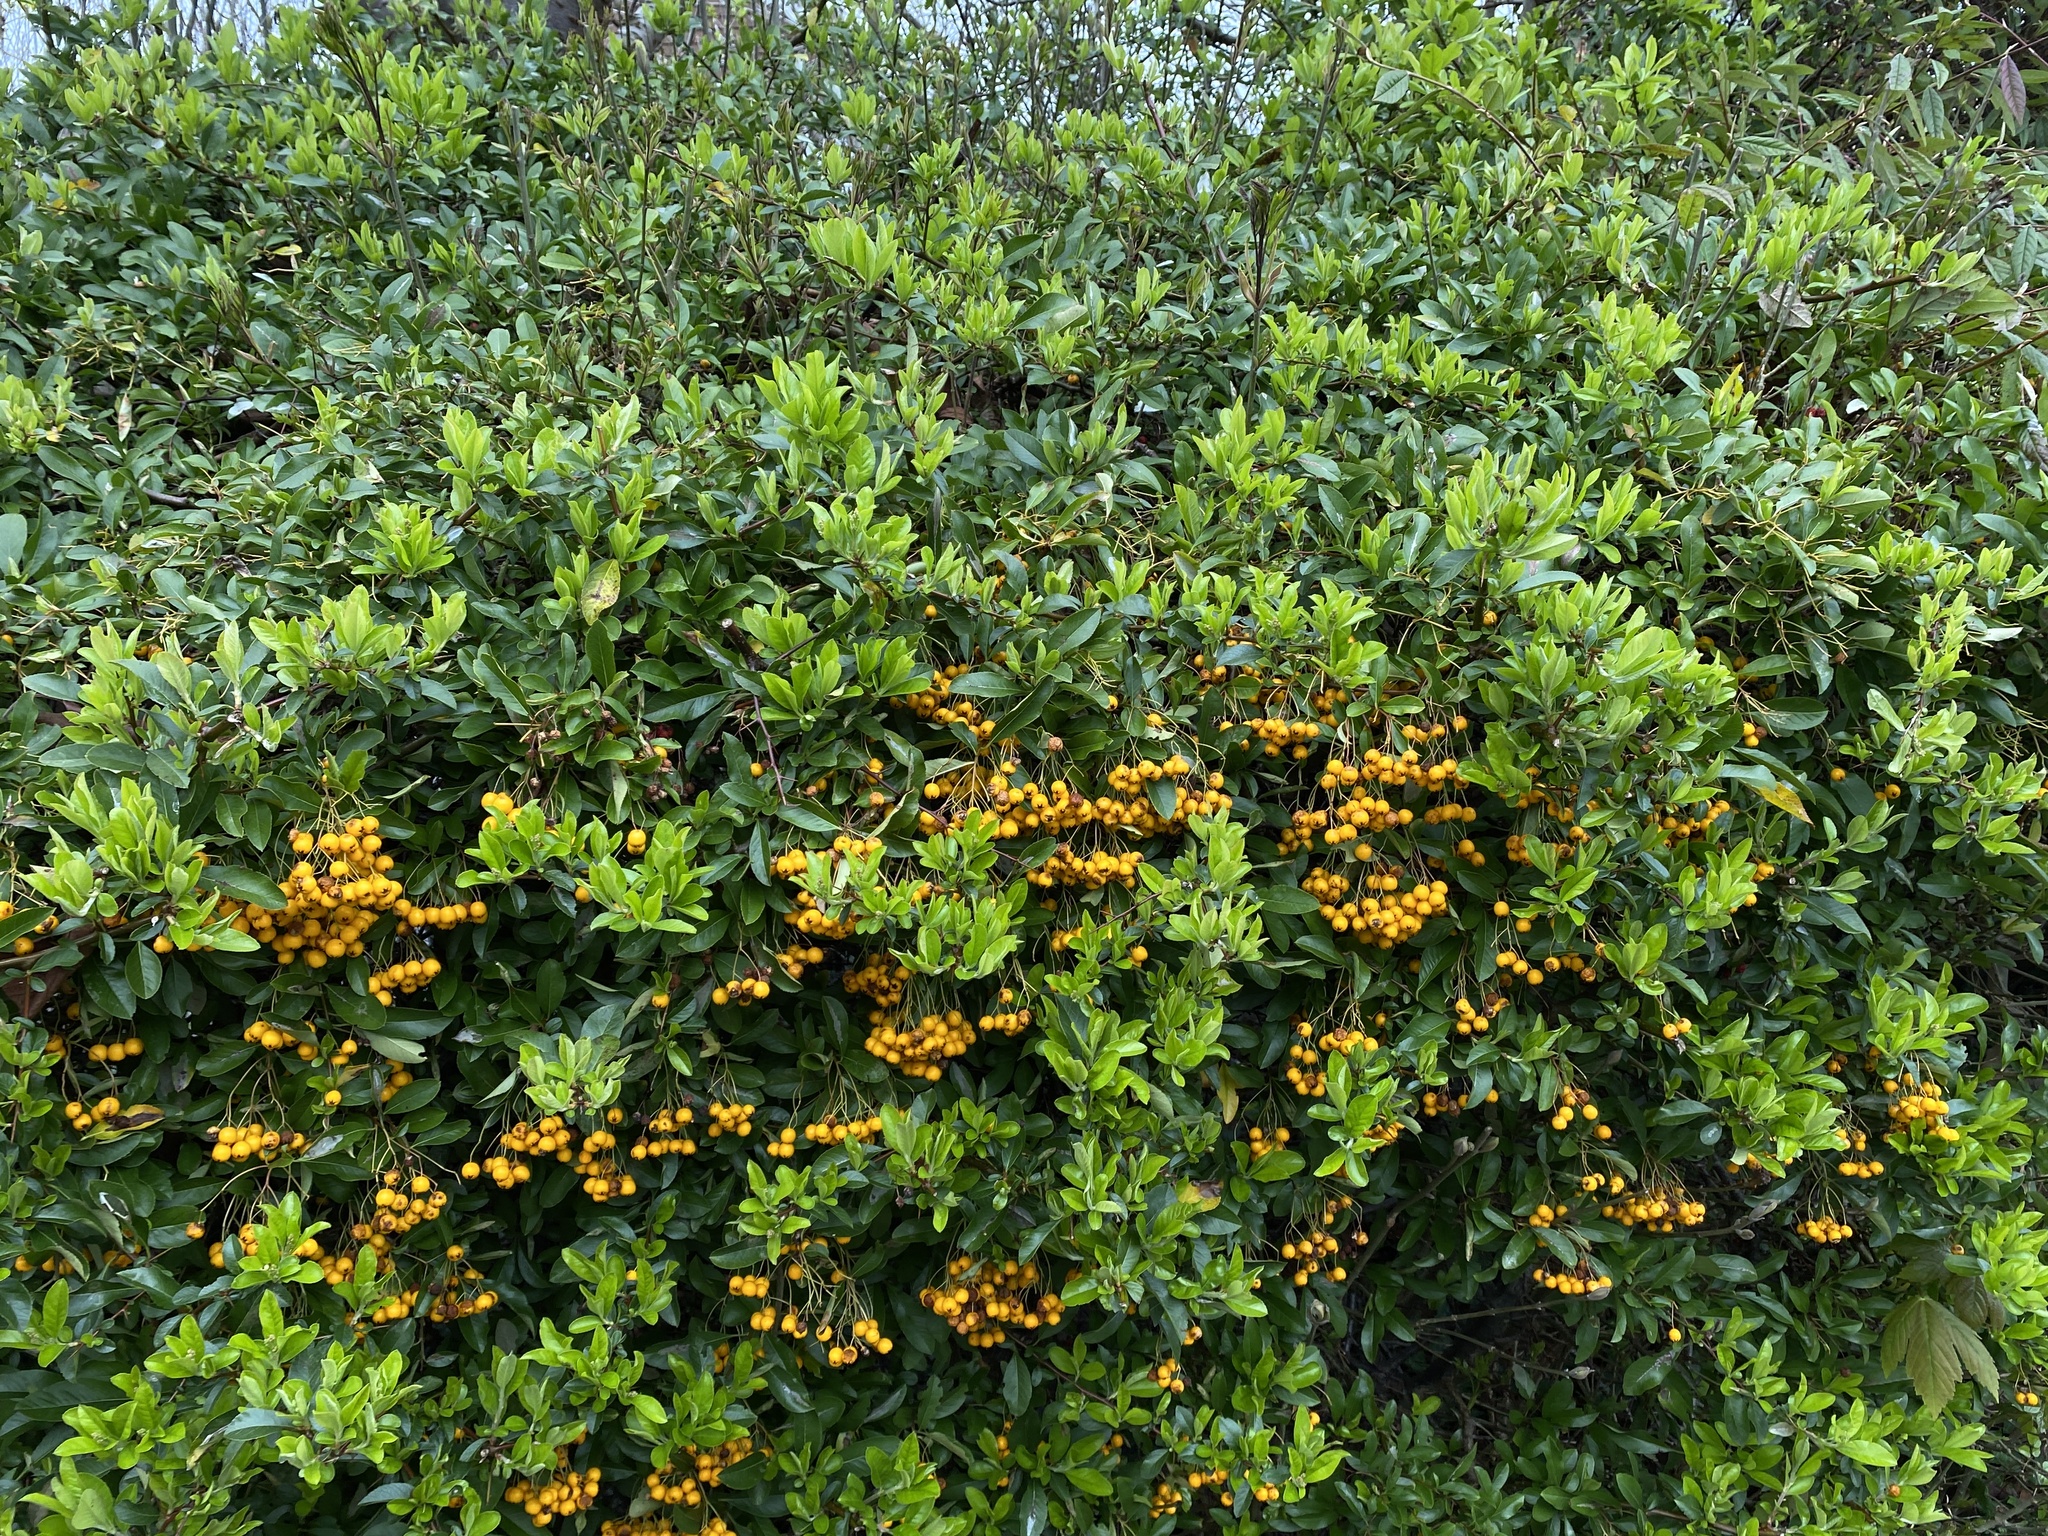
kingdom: Plantae
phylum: Tracheophyta
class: Magnoliopsida
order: Rosales
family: Rosaceae
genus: Pyracantha
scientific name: Pyracantha coccinea
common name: Firethorn
